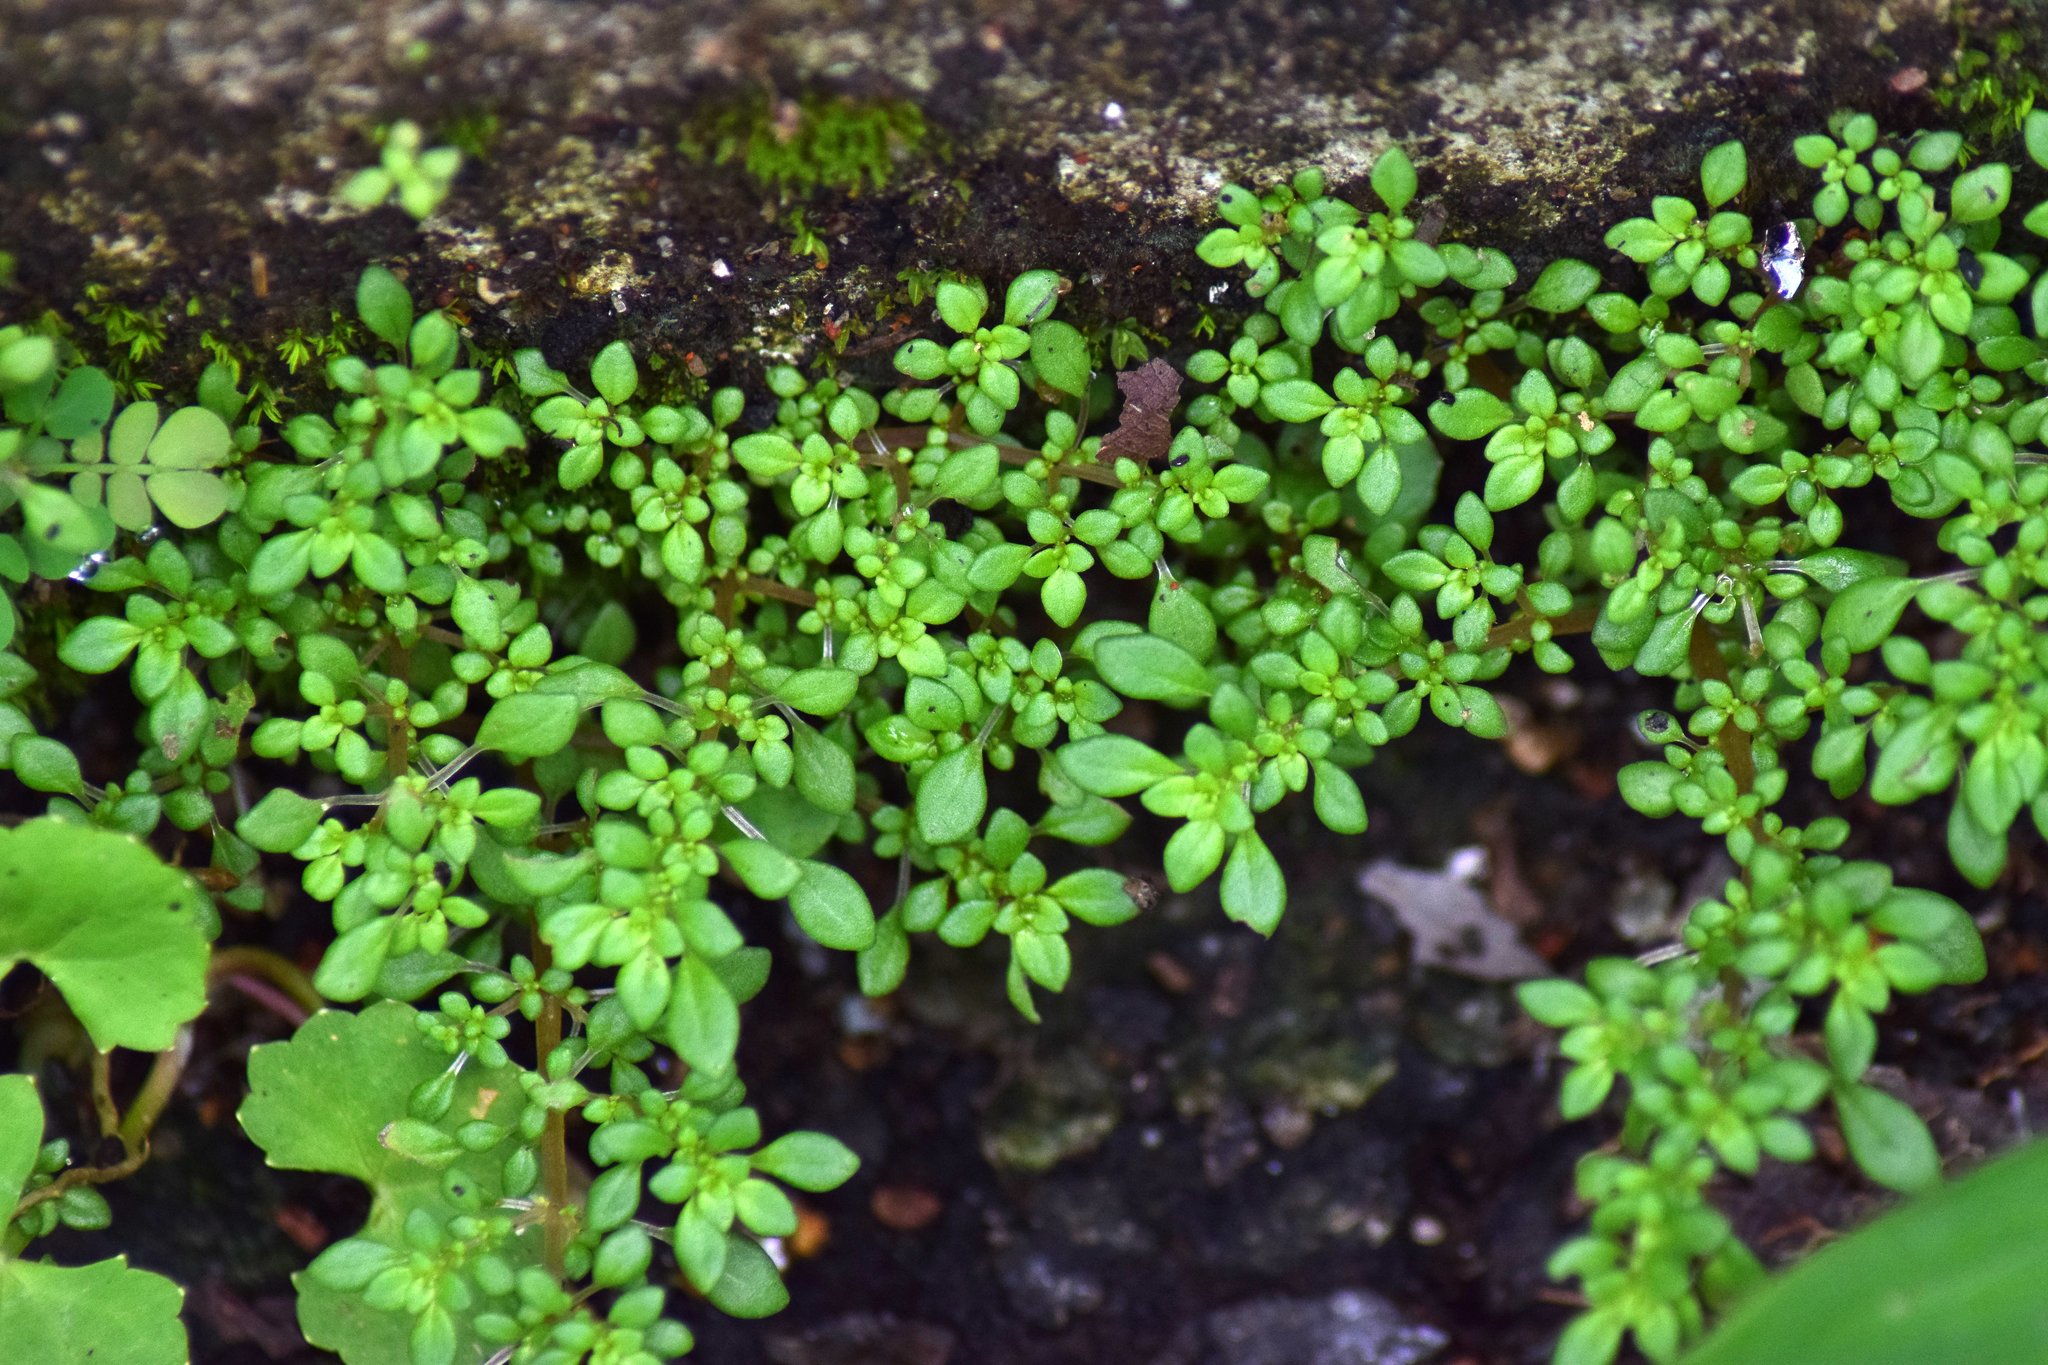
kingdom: Plantae
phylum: Tracheophyta
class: Magnoliopsida
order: Rosales
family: Urticaceae
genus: Pilea
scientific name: Pilea microphylla
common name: Artillery-plant
